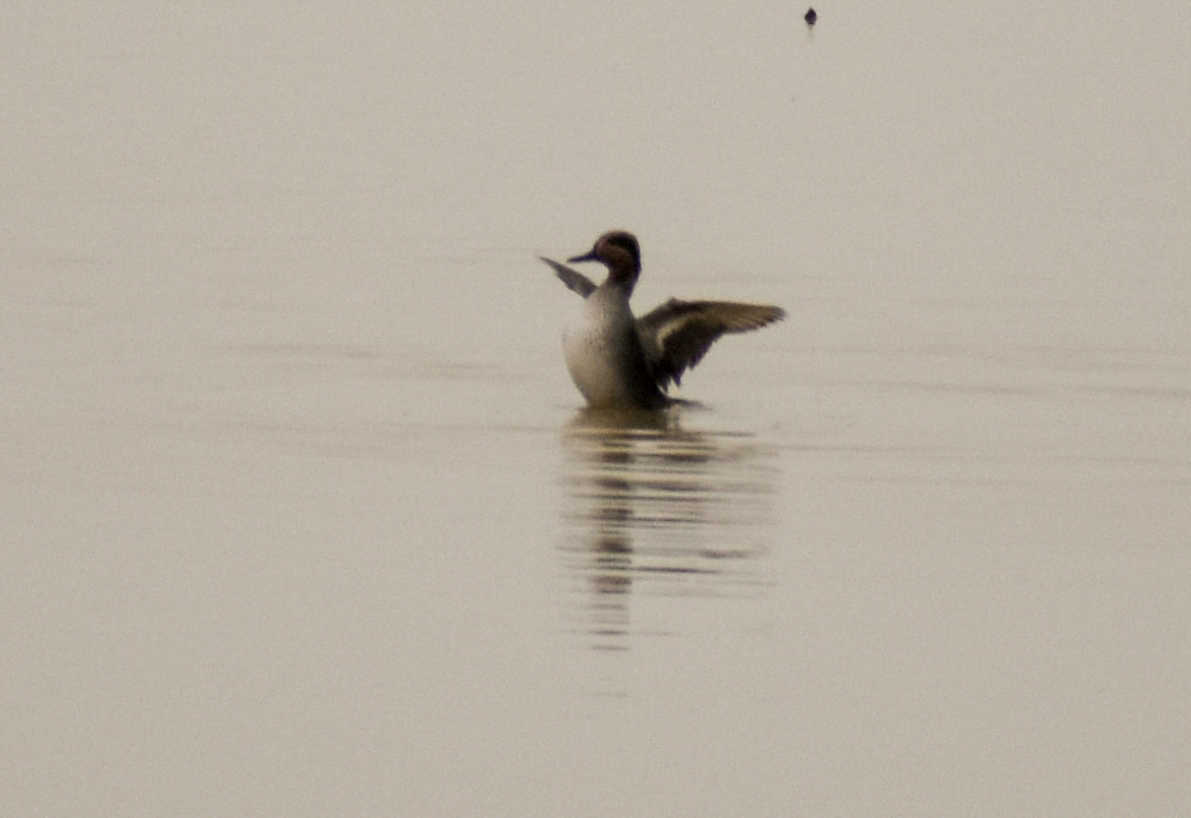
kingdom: Animalia
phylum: Chordata
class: Aves
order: Anseriformes
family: Anatidae
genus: Anas
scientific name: Anas crecca
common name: Eurasian teal
